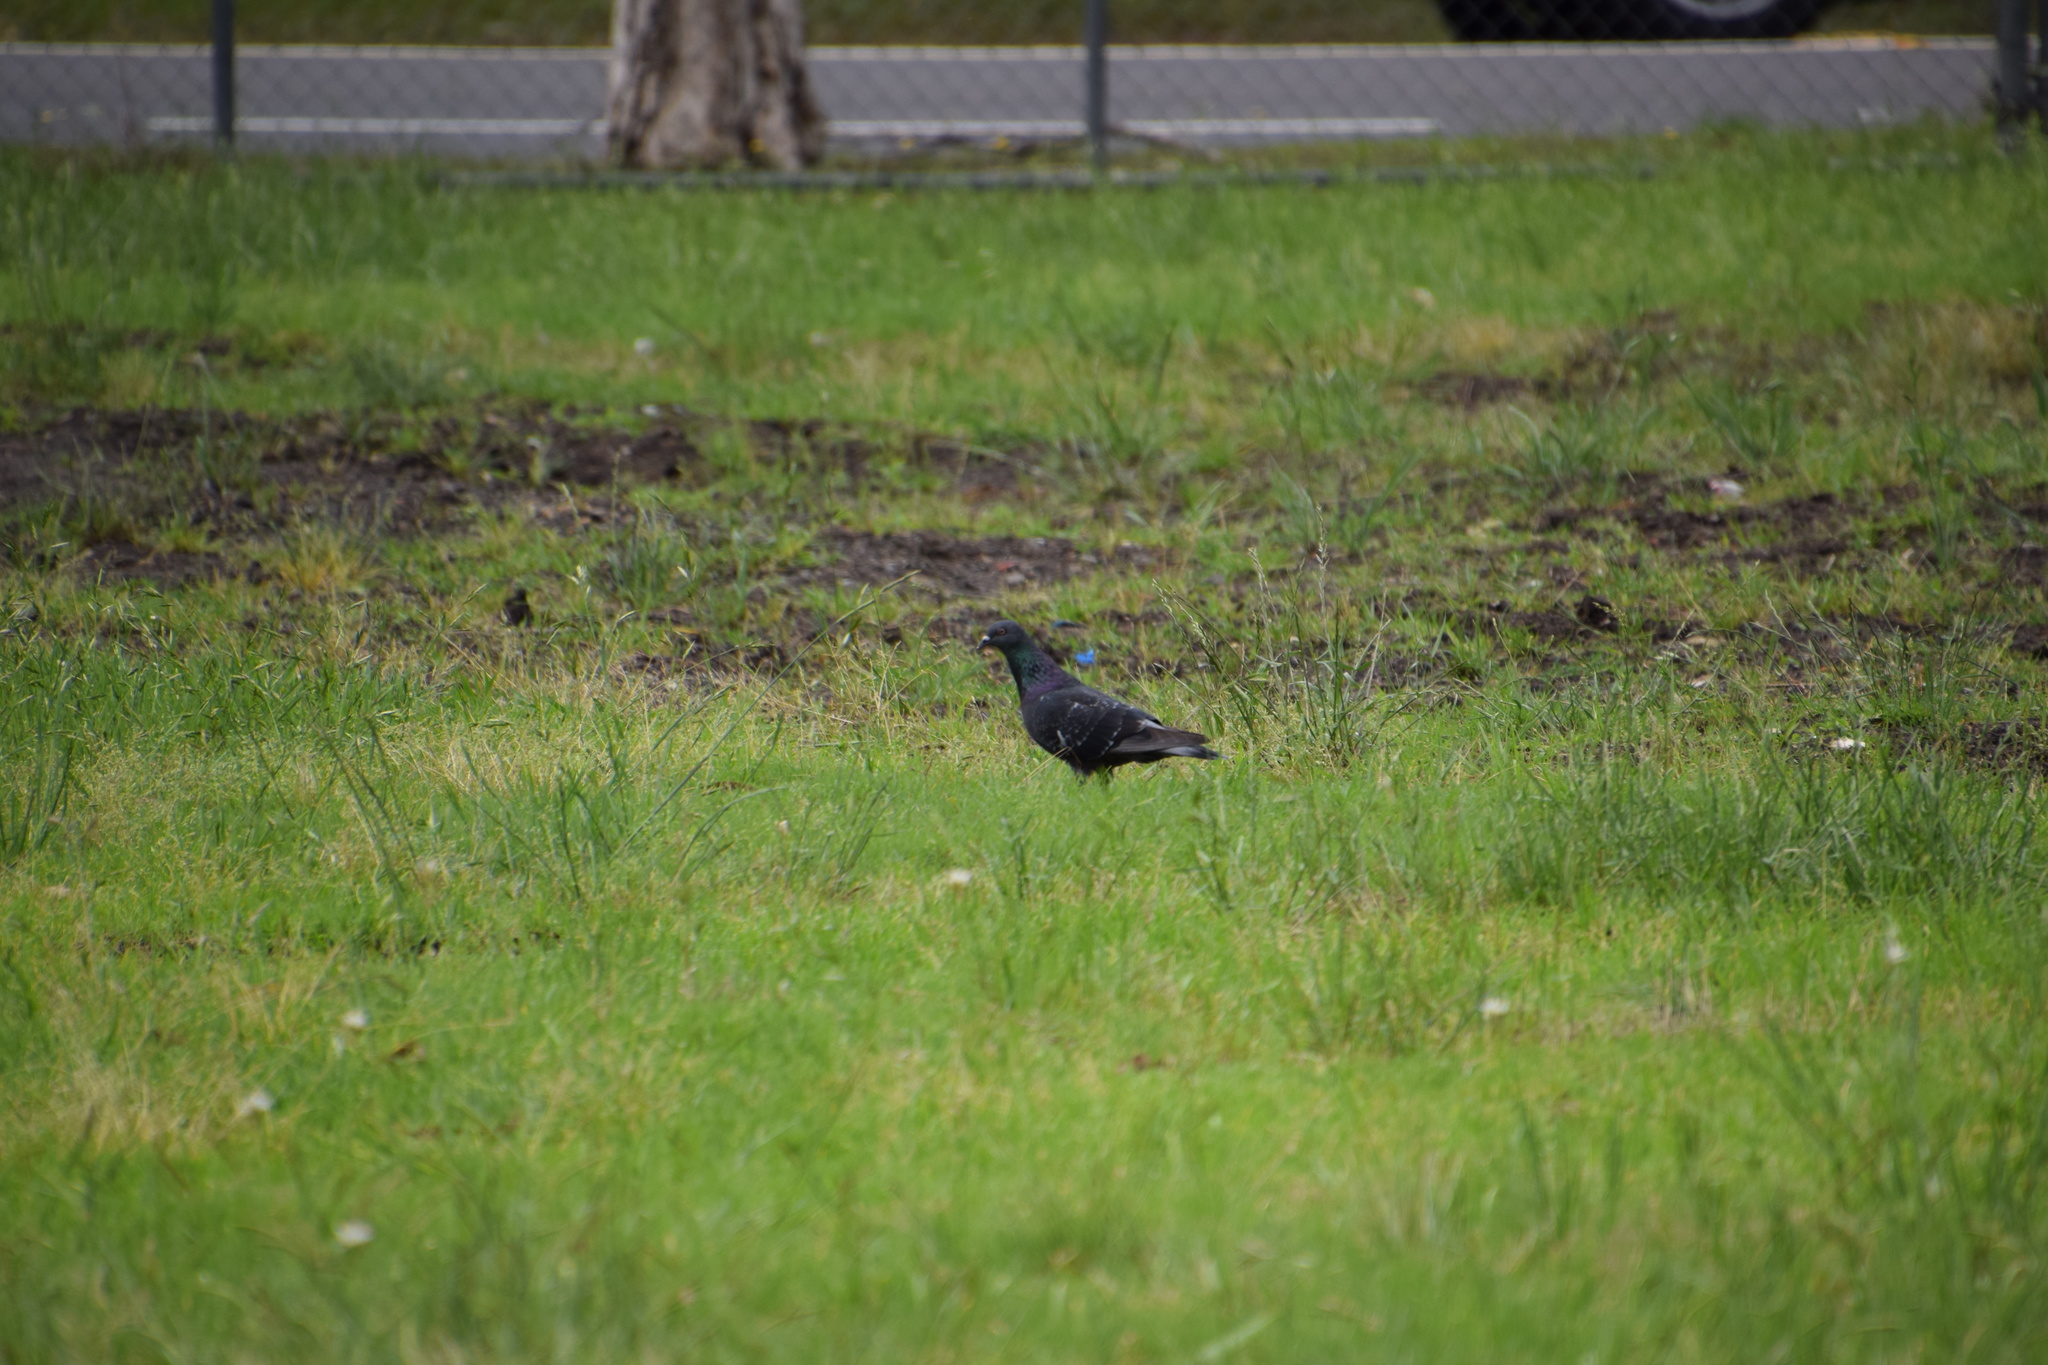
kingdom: Animalia
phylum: Chordata
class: Aves
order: Columbiformes
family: Columbidae
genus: Columba
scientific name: Columba livia
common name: Rock pigeon
